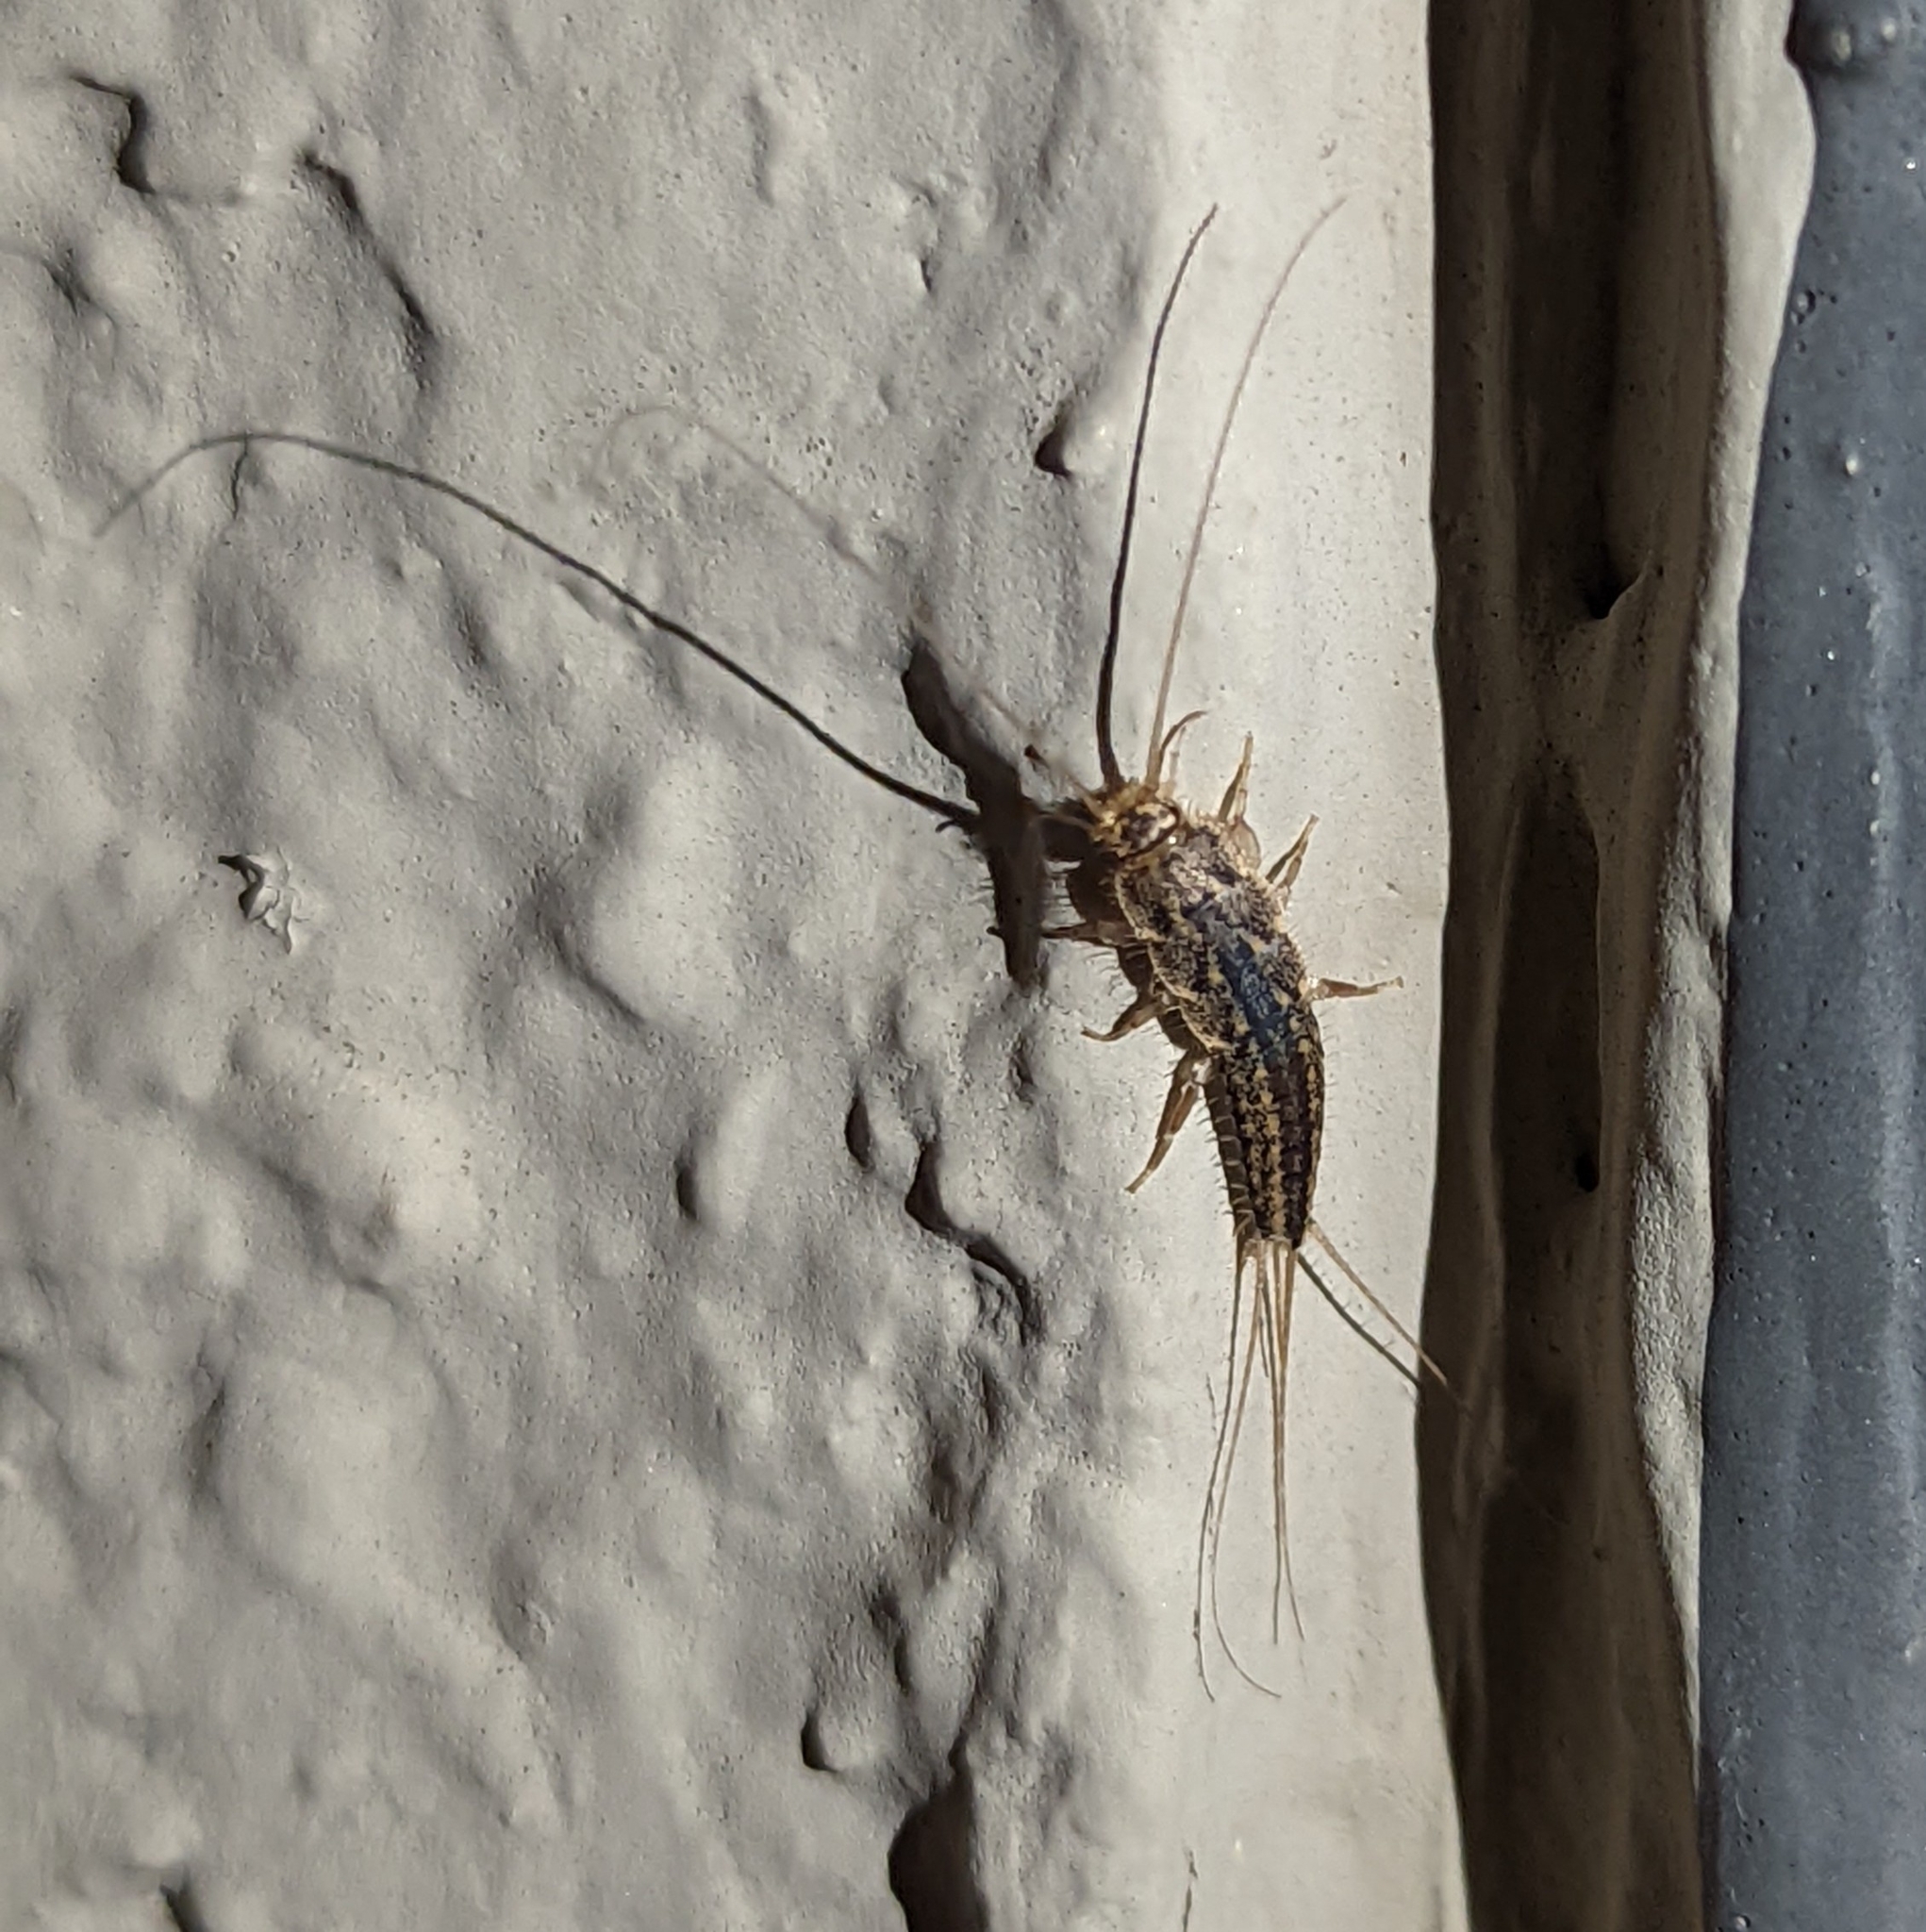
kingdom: Animalia
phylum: Arthropoda
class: Insecta
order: Zygentoma
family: Lepismatidae
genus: Ctenolepisma
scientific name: Ctenolepisma lineata
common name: Four-lined silverfish
